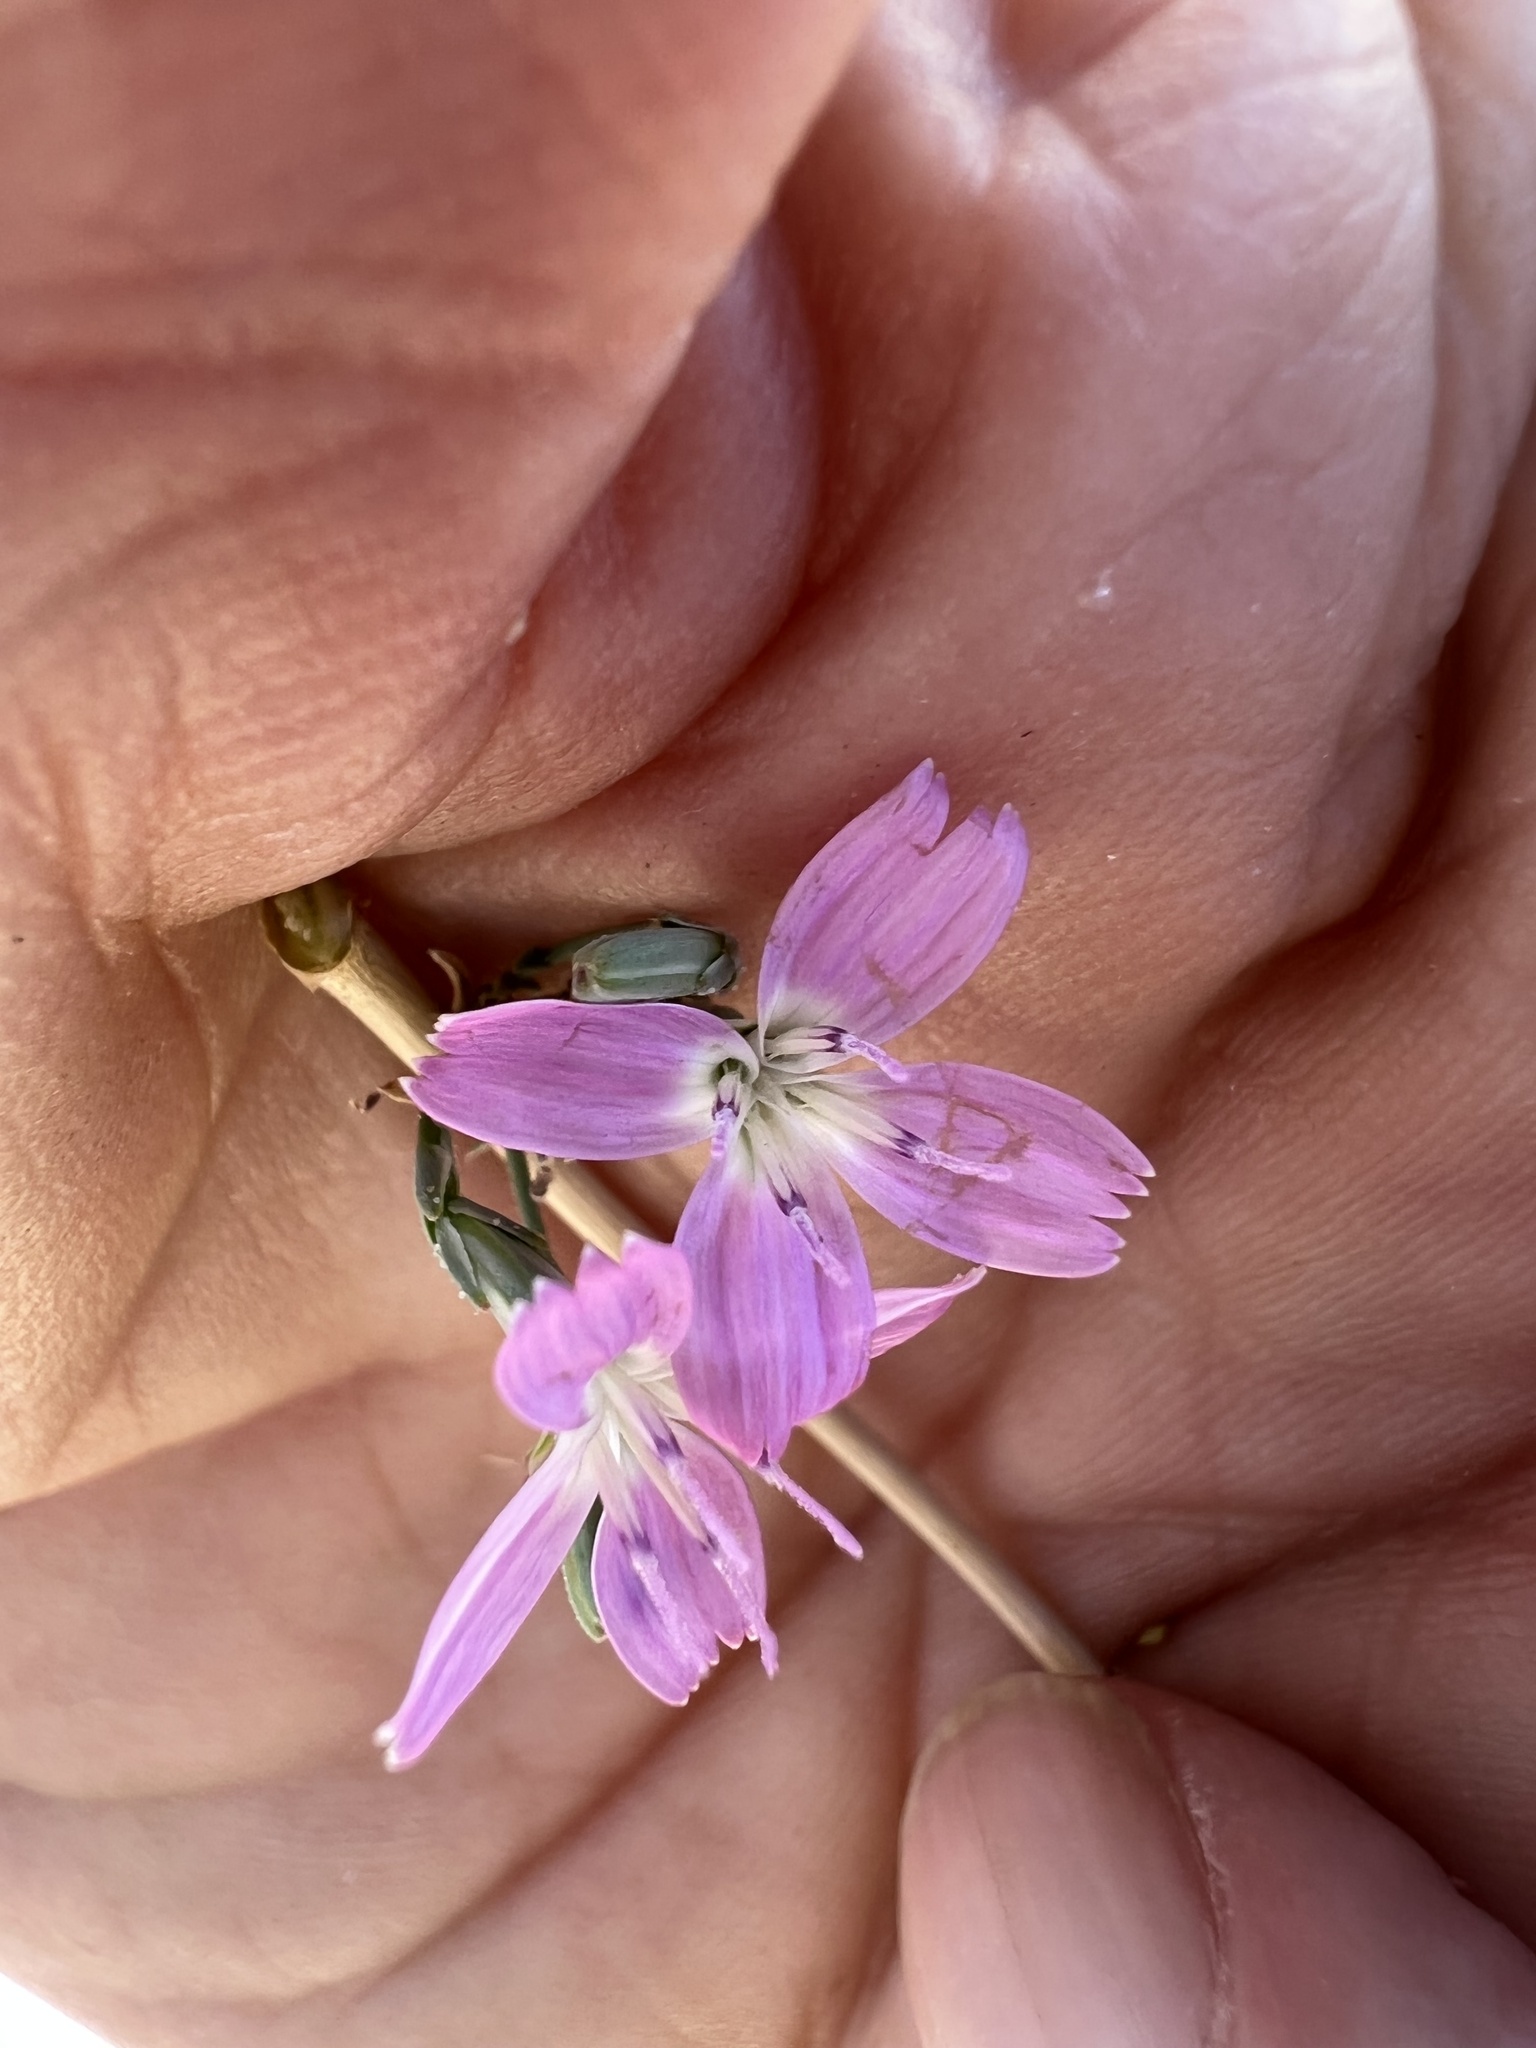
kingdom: Plantae
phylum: Tracheophyta
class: Magnoliopsida
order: Asterales
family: Asteraceae
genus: Stephanomeria
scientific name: Stephanomeria exigua
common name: Small wirelettuce
